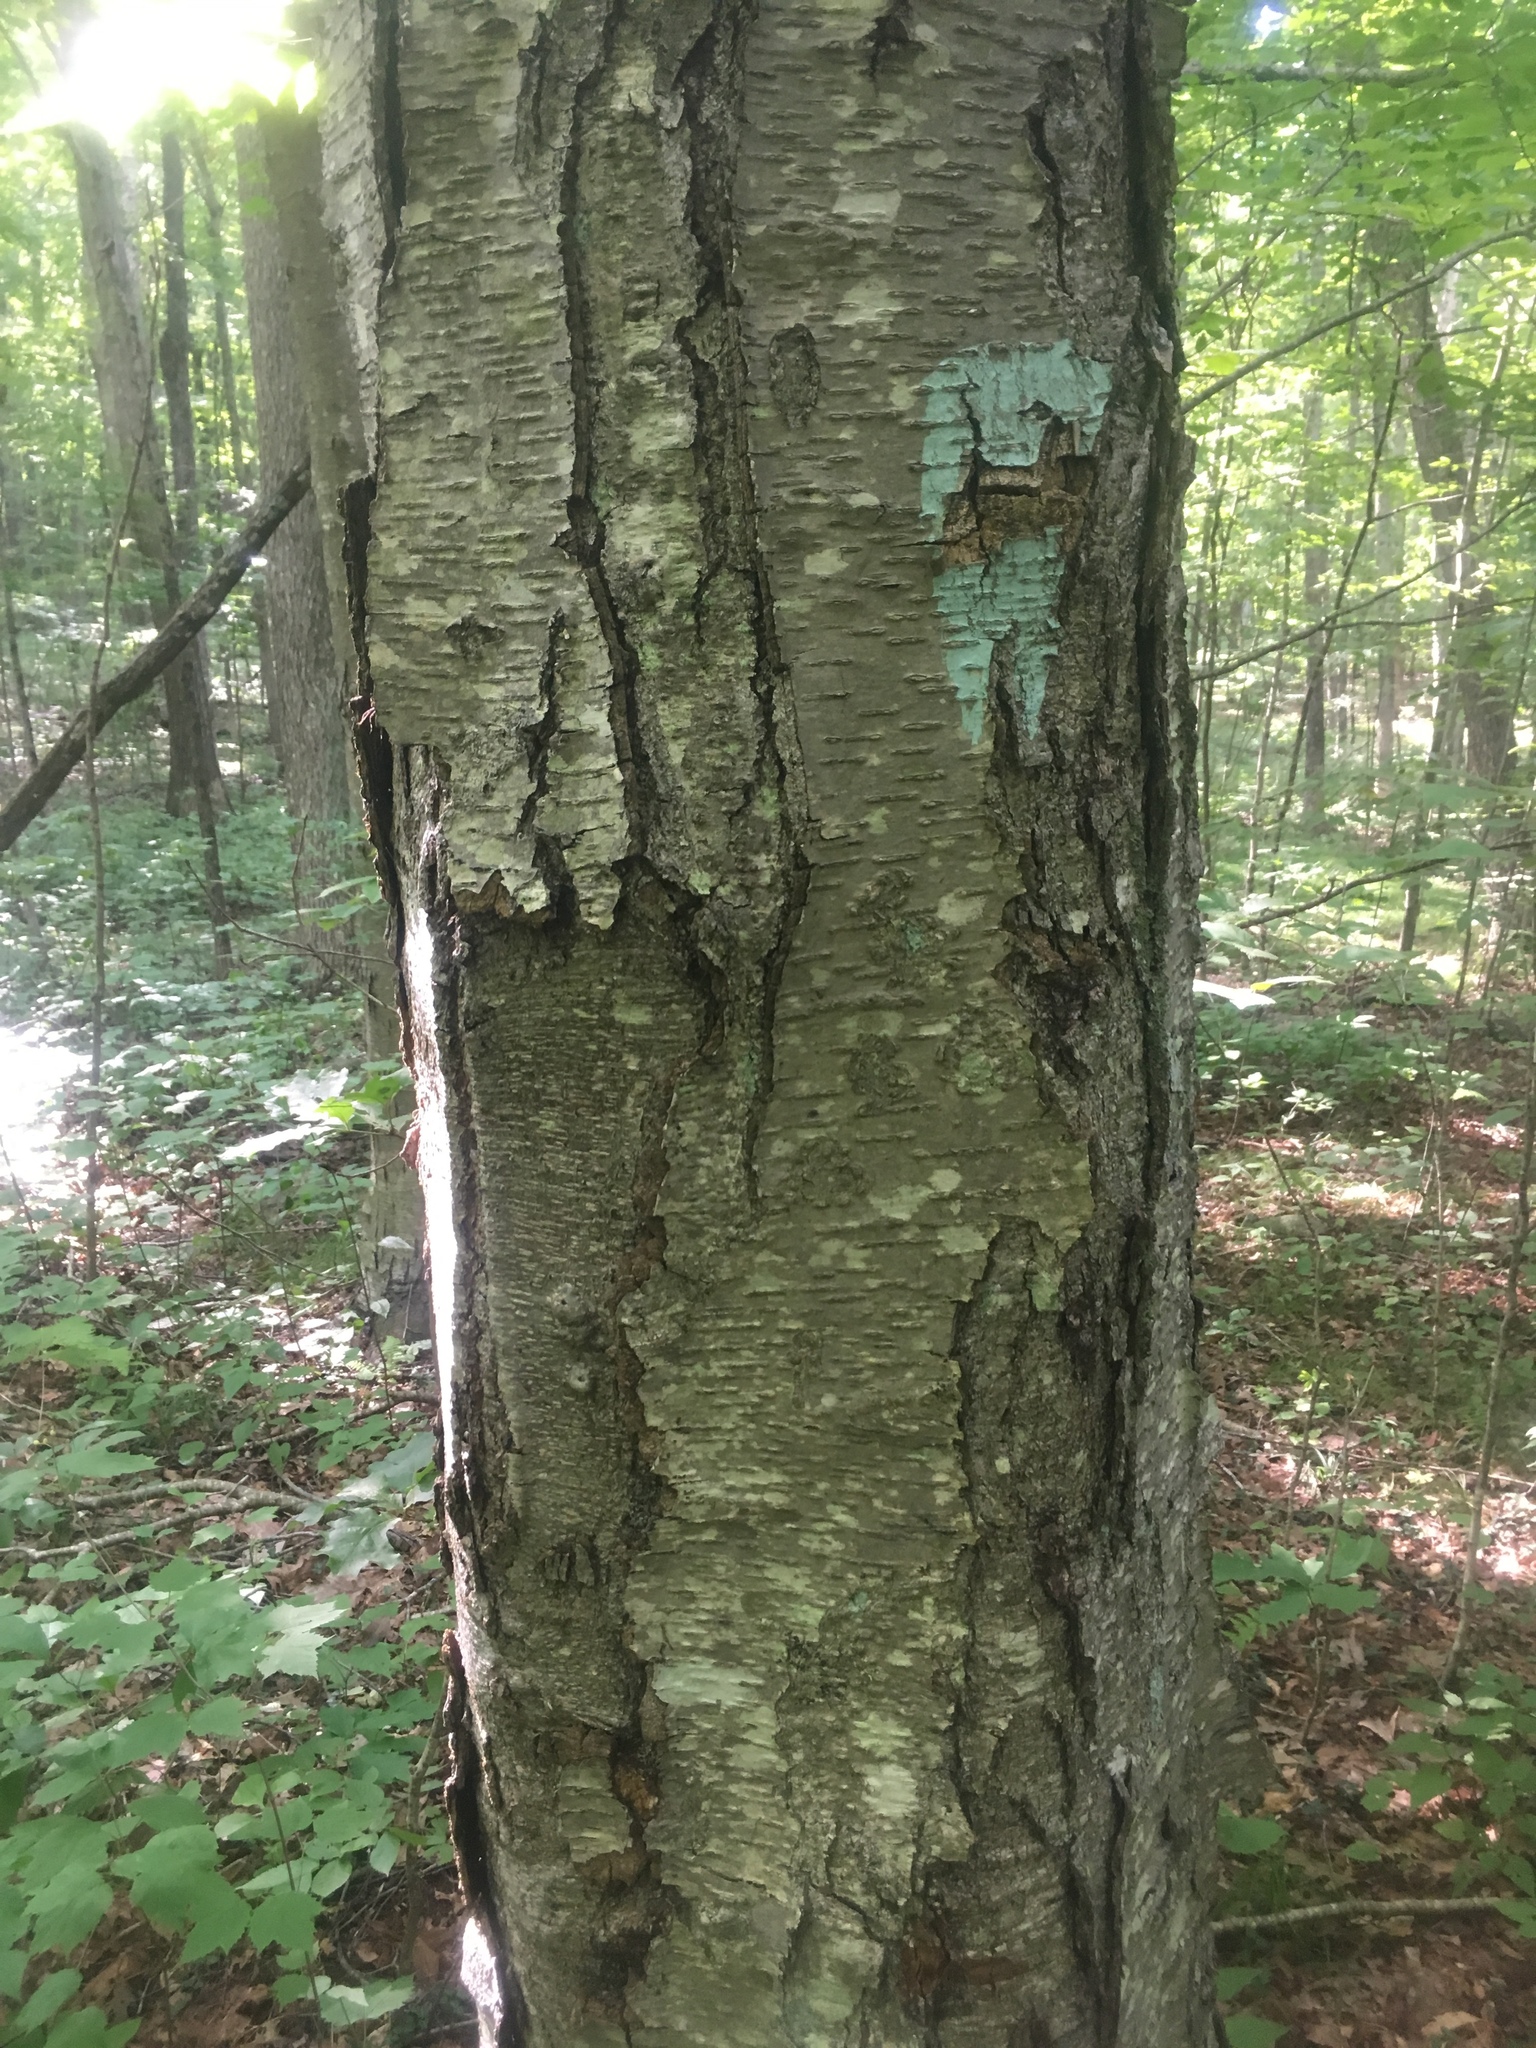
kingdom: Plantae
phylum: Tracheophyta
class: Magnoliopsida
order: Fagales
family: Betulaceae
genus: Betula
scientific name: Betula lenta
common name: Black birch
